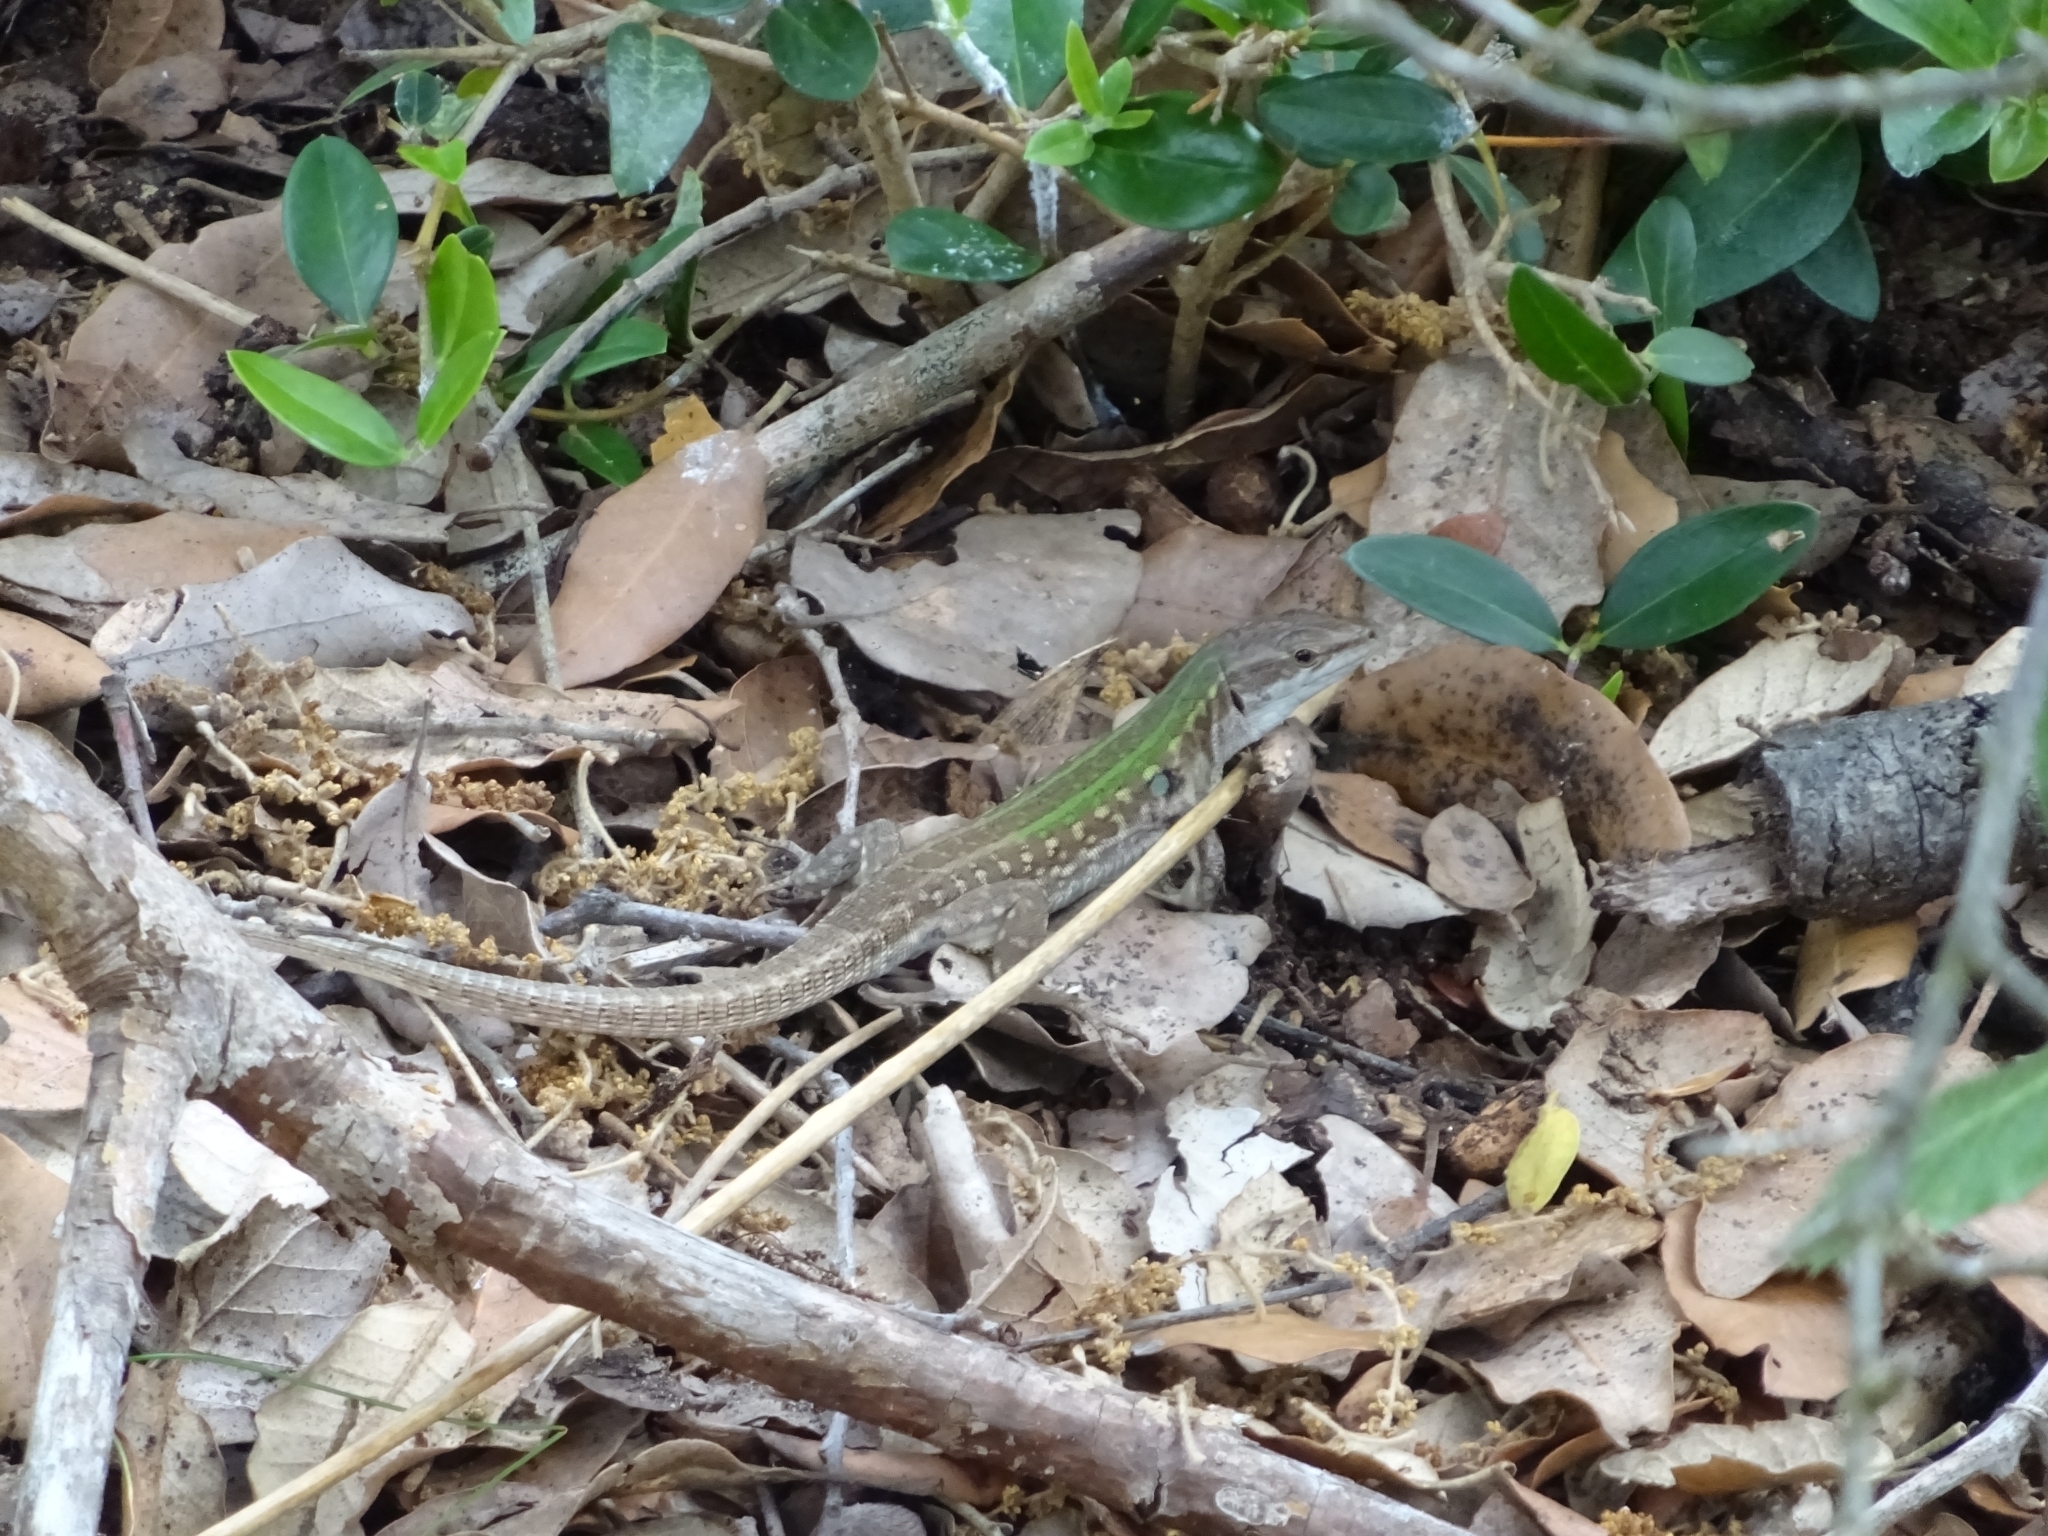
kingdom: Animalia
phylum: Chordata
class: Squamata
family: Lacertidae
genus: Podarcis
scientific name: Podarcis siculus
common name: Italian wall lizard
